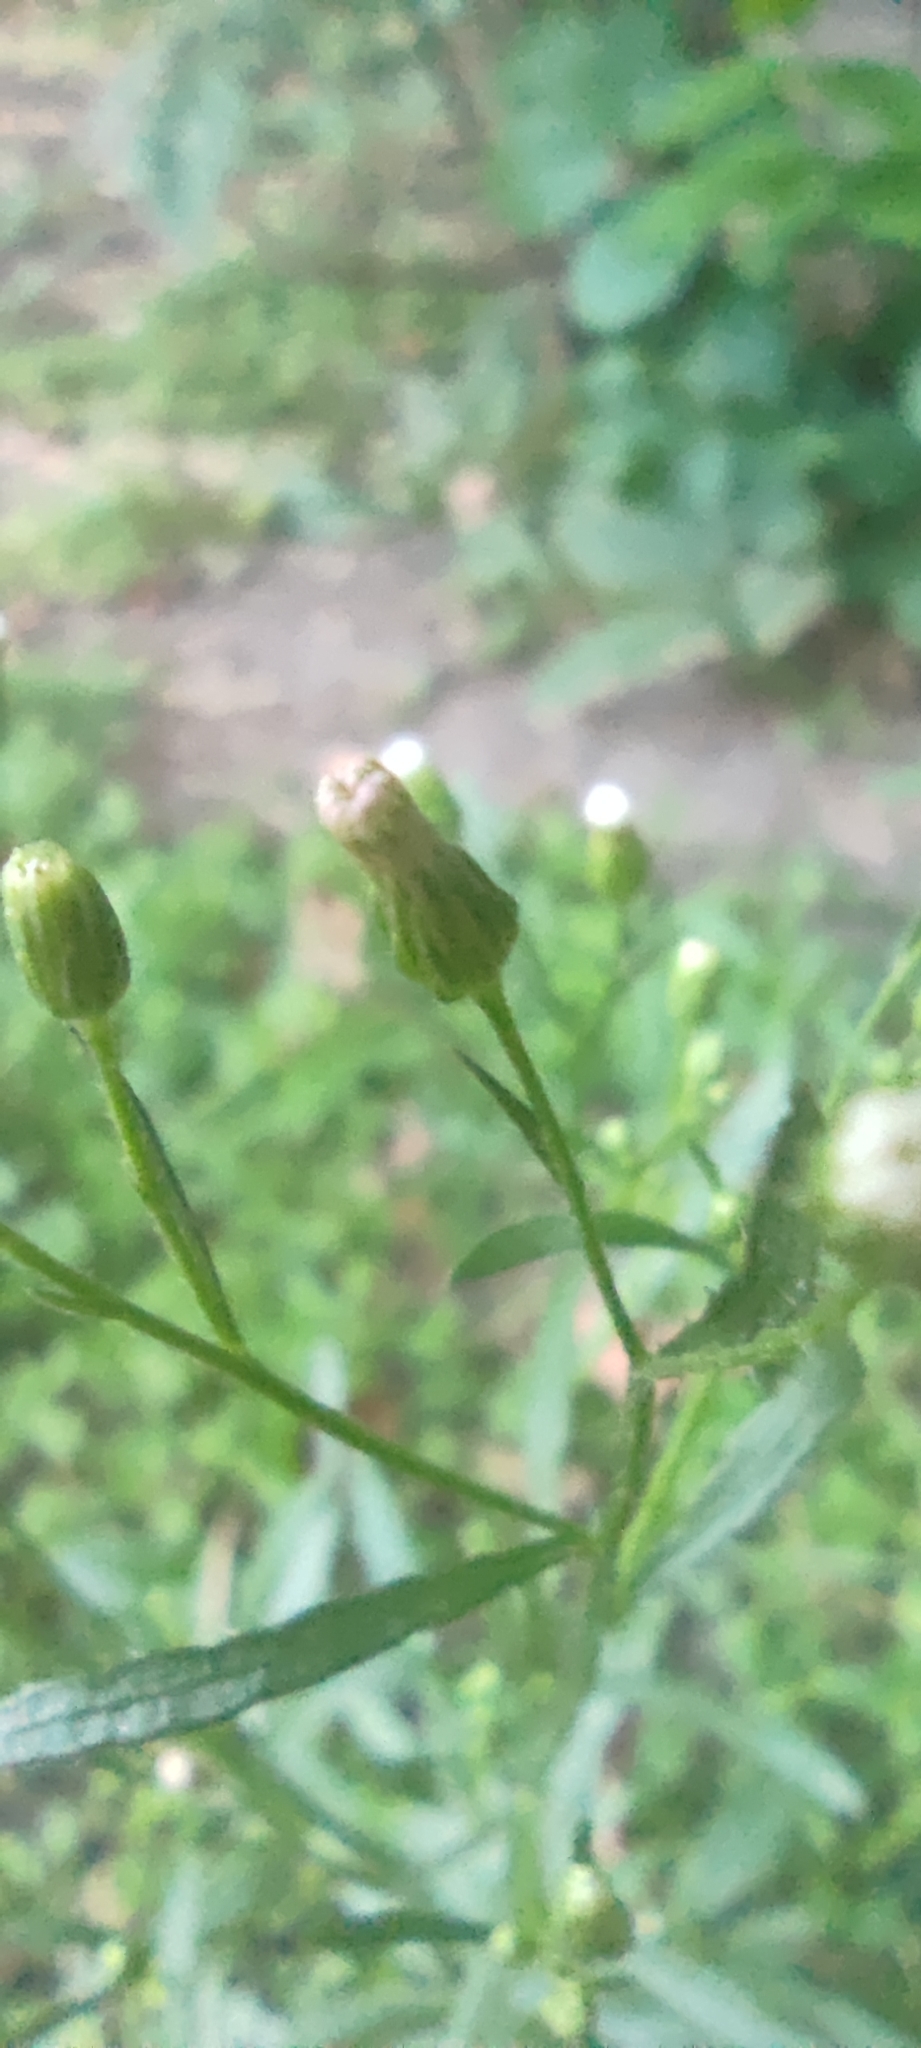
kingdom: Plantae
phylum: Tracheophyta
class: Magnoliopsida
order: Asterales
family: Asteraceae
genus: Erigeron
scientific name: Erigeron canadensis
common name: Canadian fleabane
